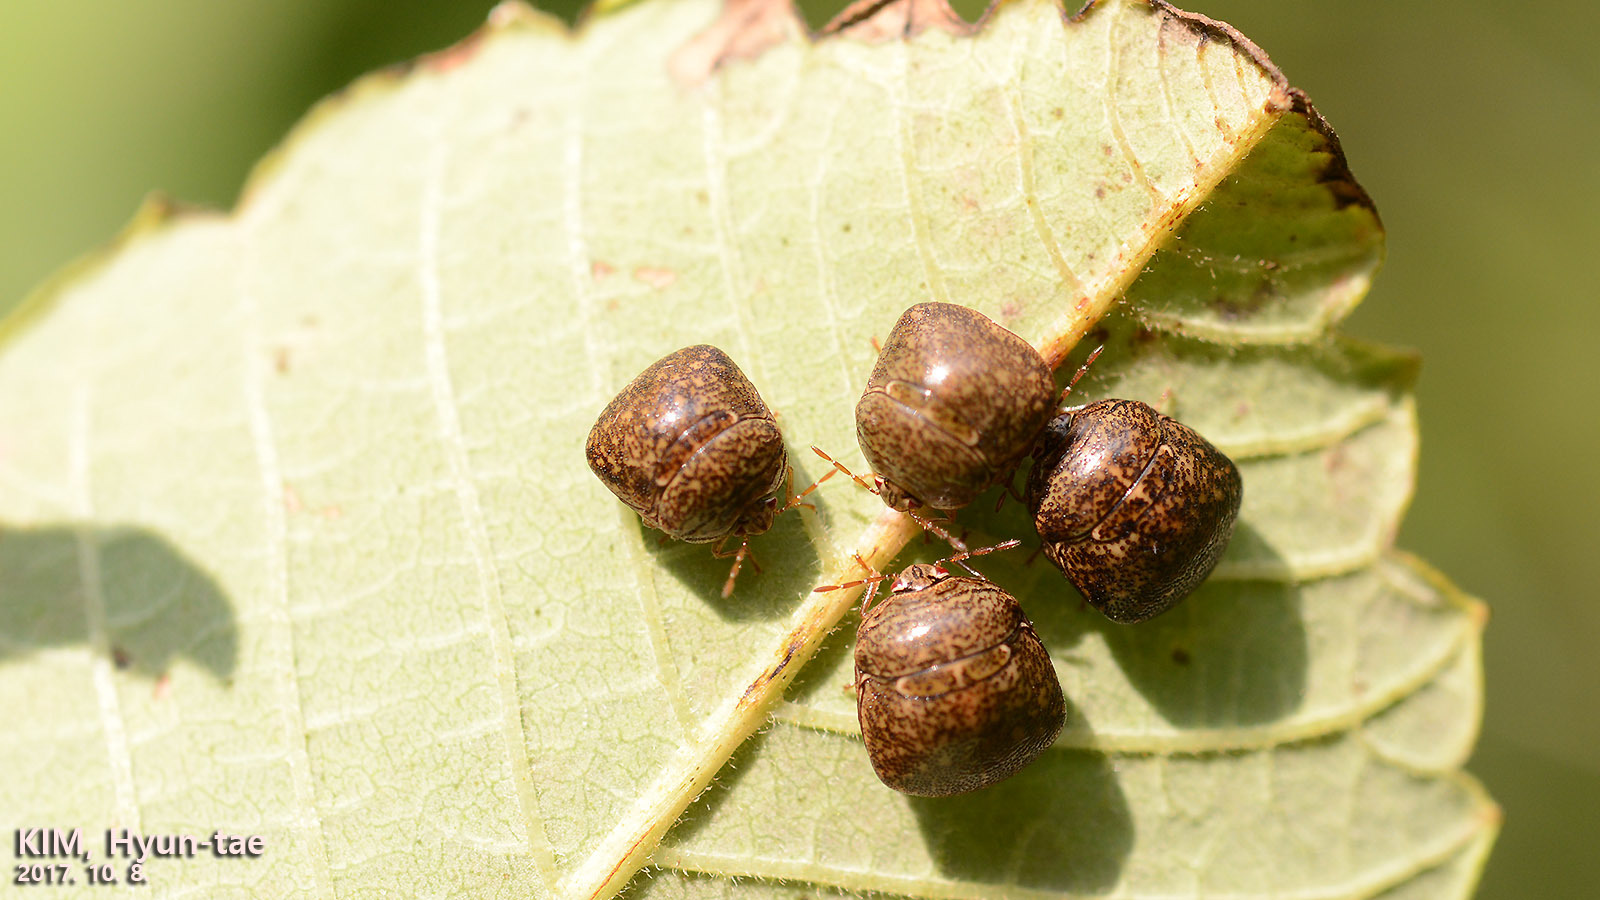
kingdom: Animalia
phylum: Arthropoda
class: Insecta
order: Hemiptera
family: Plataspidae
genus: Megacopta
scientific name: Megacopta punctatissima
